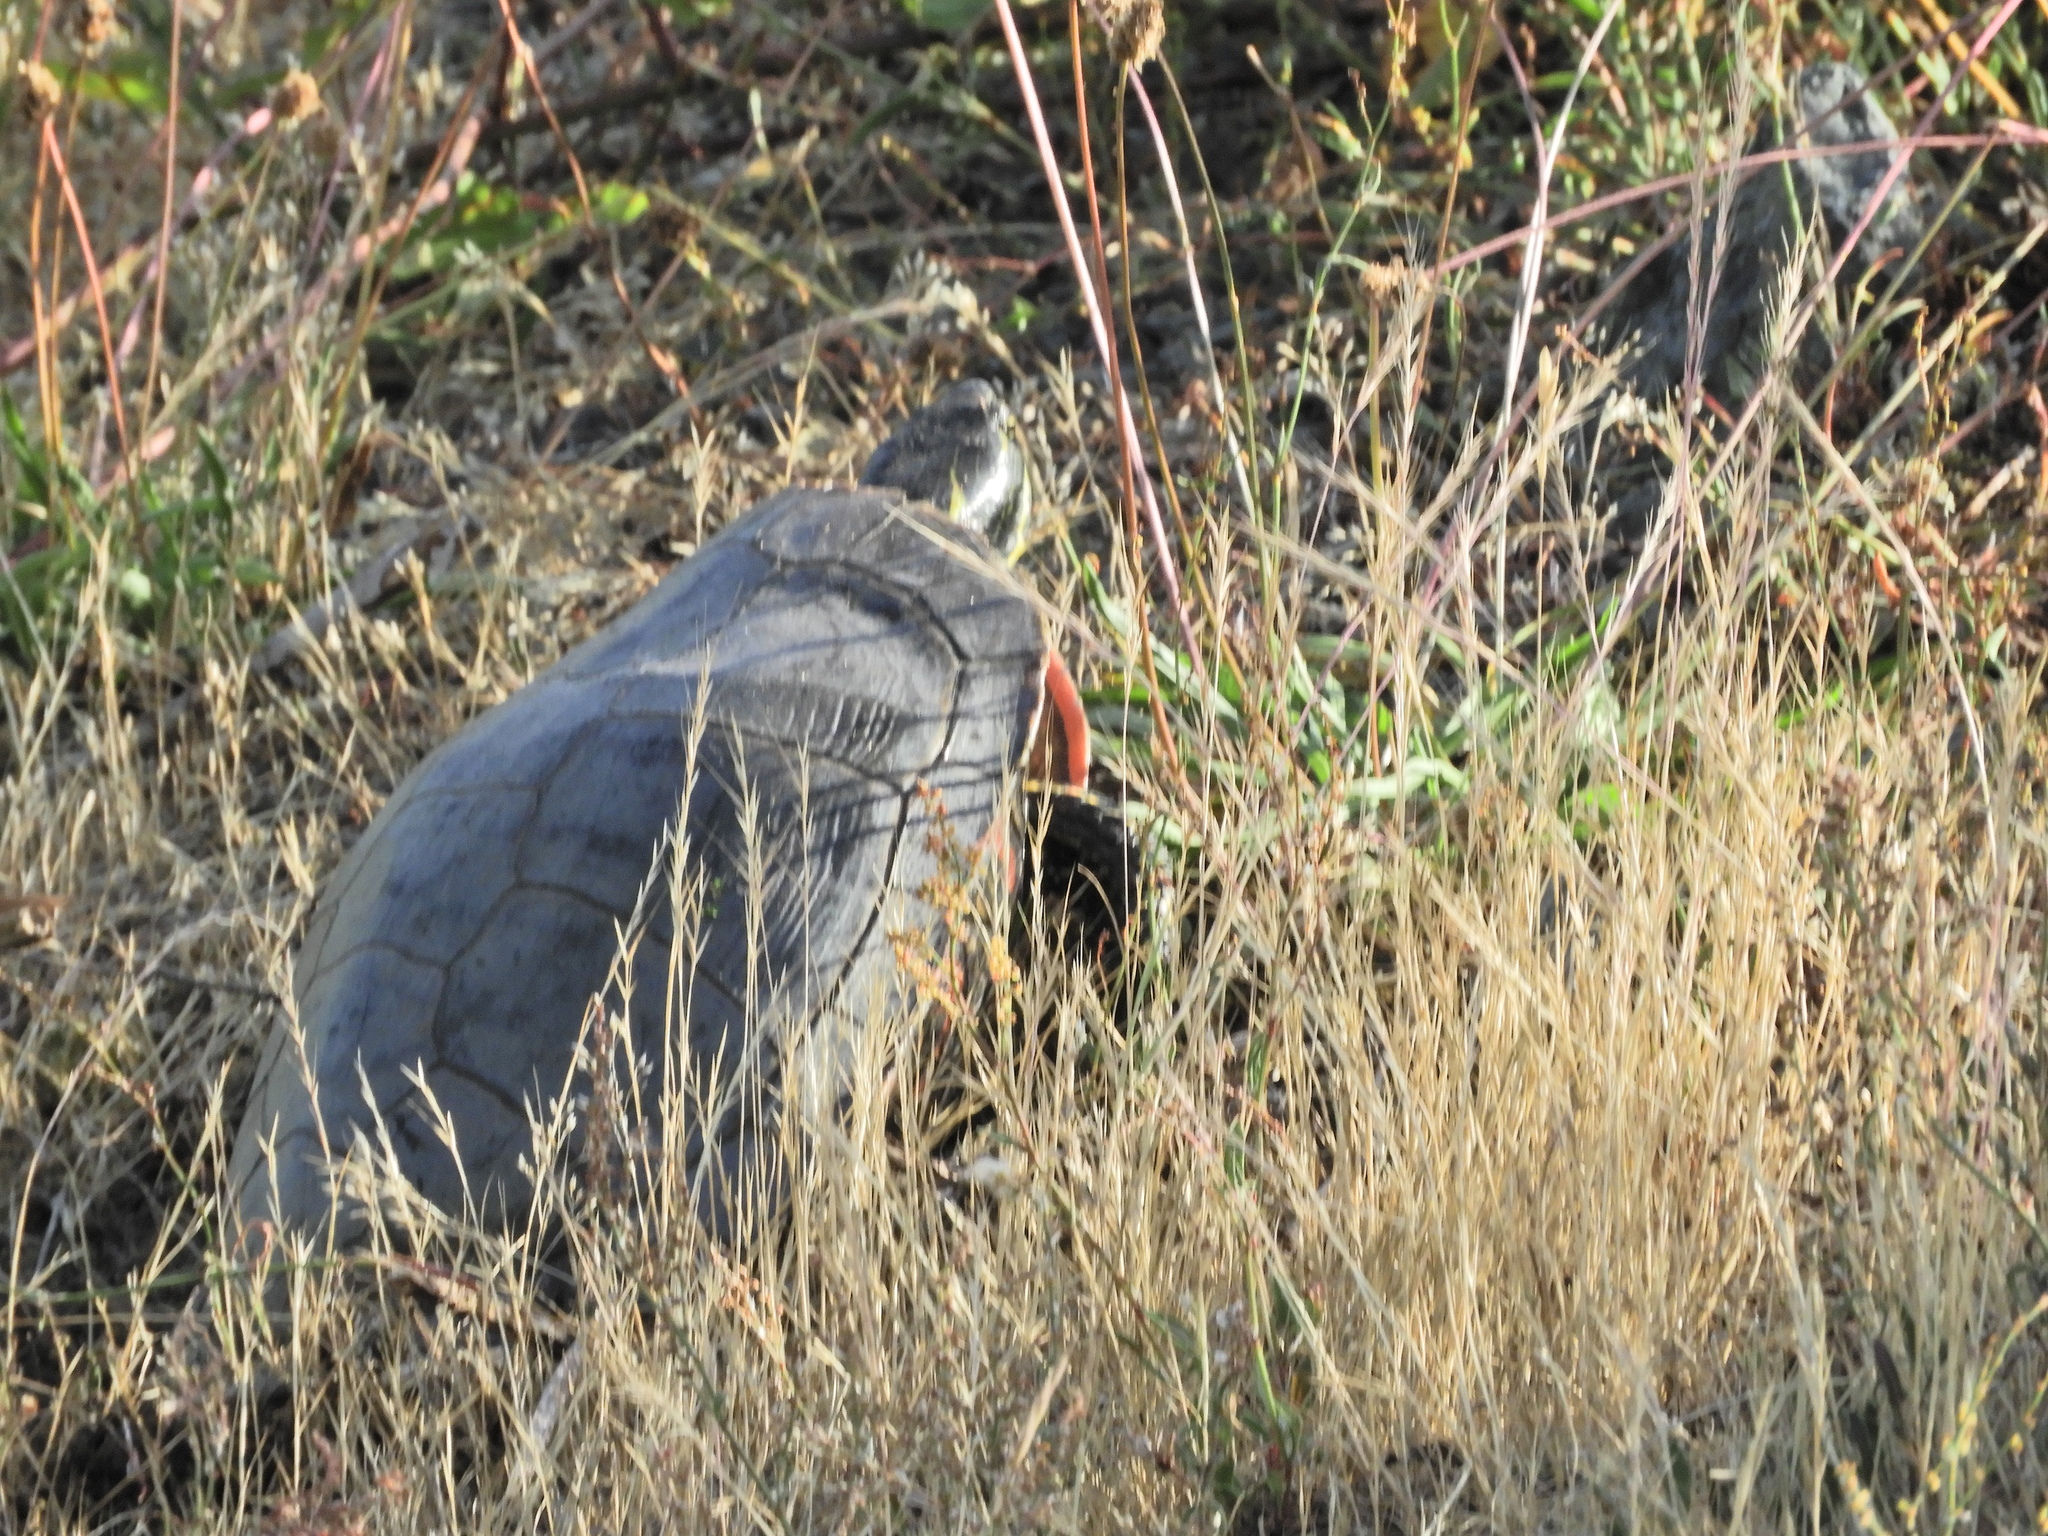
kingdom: Animalia
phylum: Chordata
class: Testudines
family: Emydidae
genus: Chrysemys
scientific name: Chrysemys picta
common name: Painted turtle
